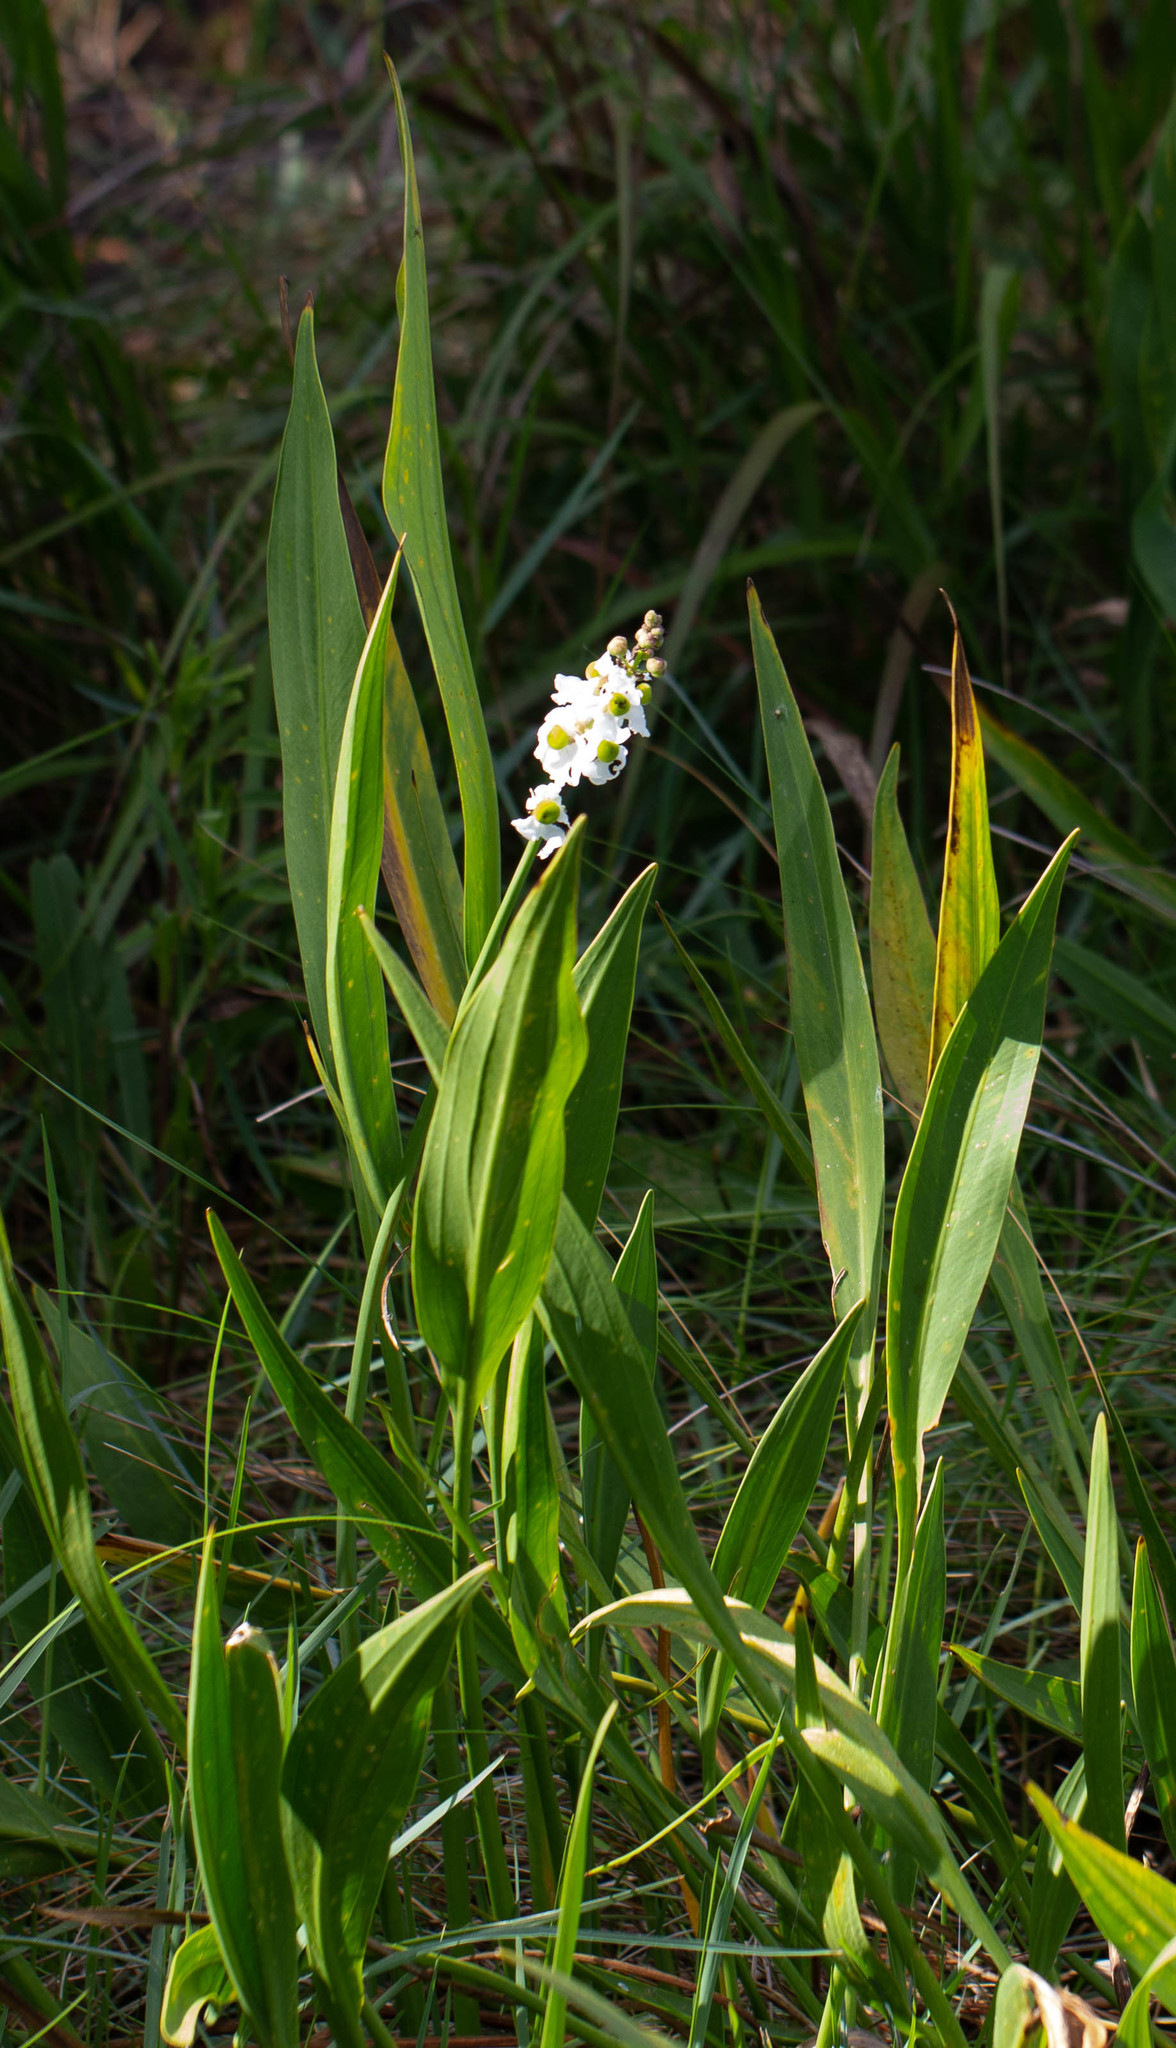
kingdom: Plantae
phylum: Tracheophyta
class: Liliopsida
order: Alismatales
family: Alismataceae
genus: Sagittaria
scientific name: Sagittaria lancifolia
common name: Lance-leaf arrowhead
